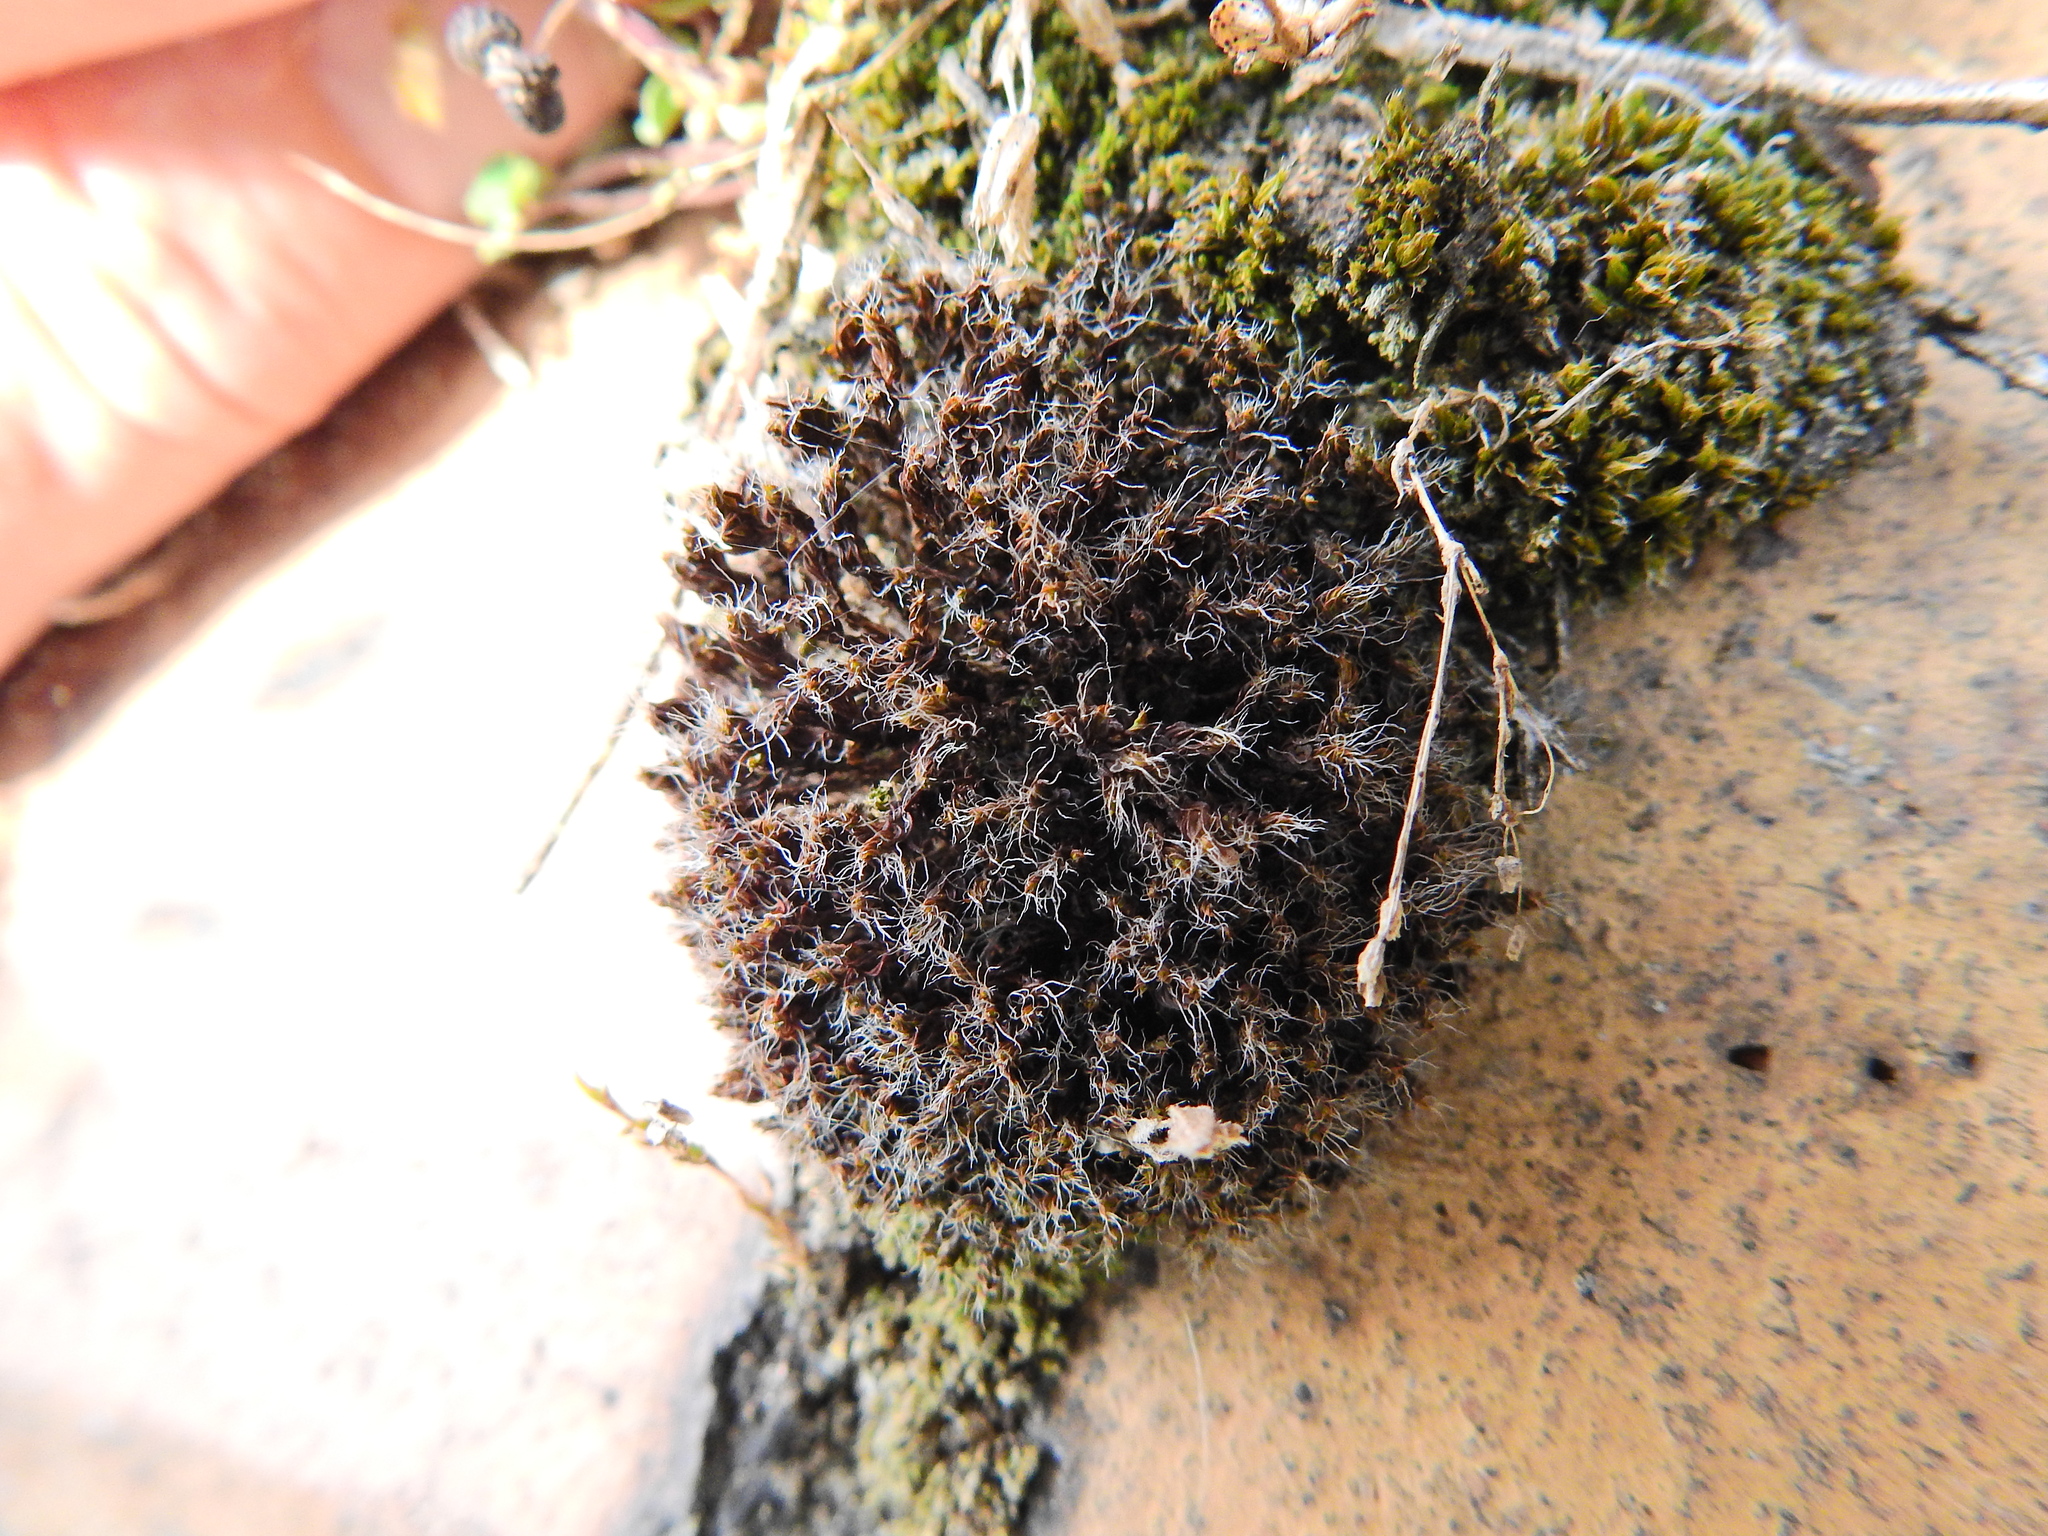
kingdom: Plantae
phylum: Bryophyta
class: Bryopsida
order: Pottiales
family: Pottiaceae
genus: Tortula
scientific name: Tortula muralis
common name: Wall screw-moss
